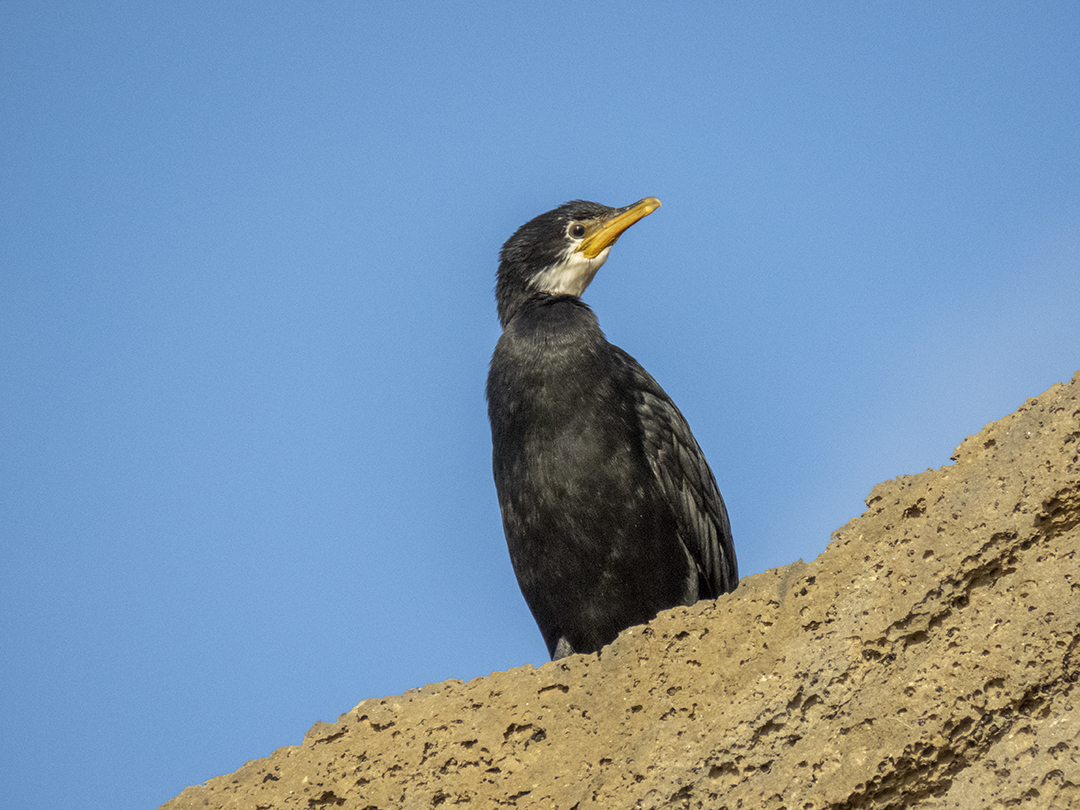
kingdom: Animalia
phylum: Chordata
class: Aves
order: Suliformes
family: Phalacrocoracidae
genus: Microcarbo
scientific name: Microcarbo melanoleucos
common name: Little pied cormorant
